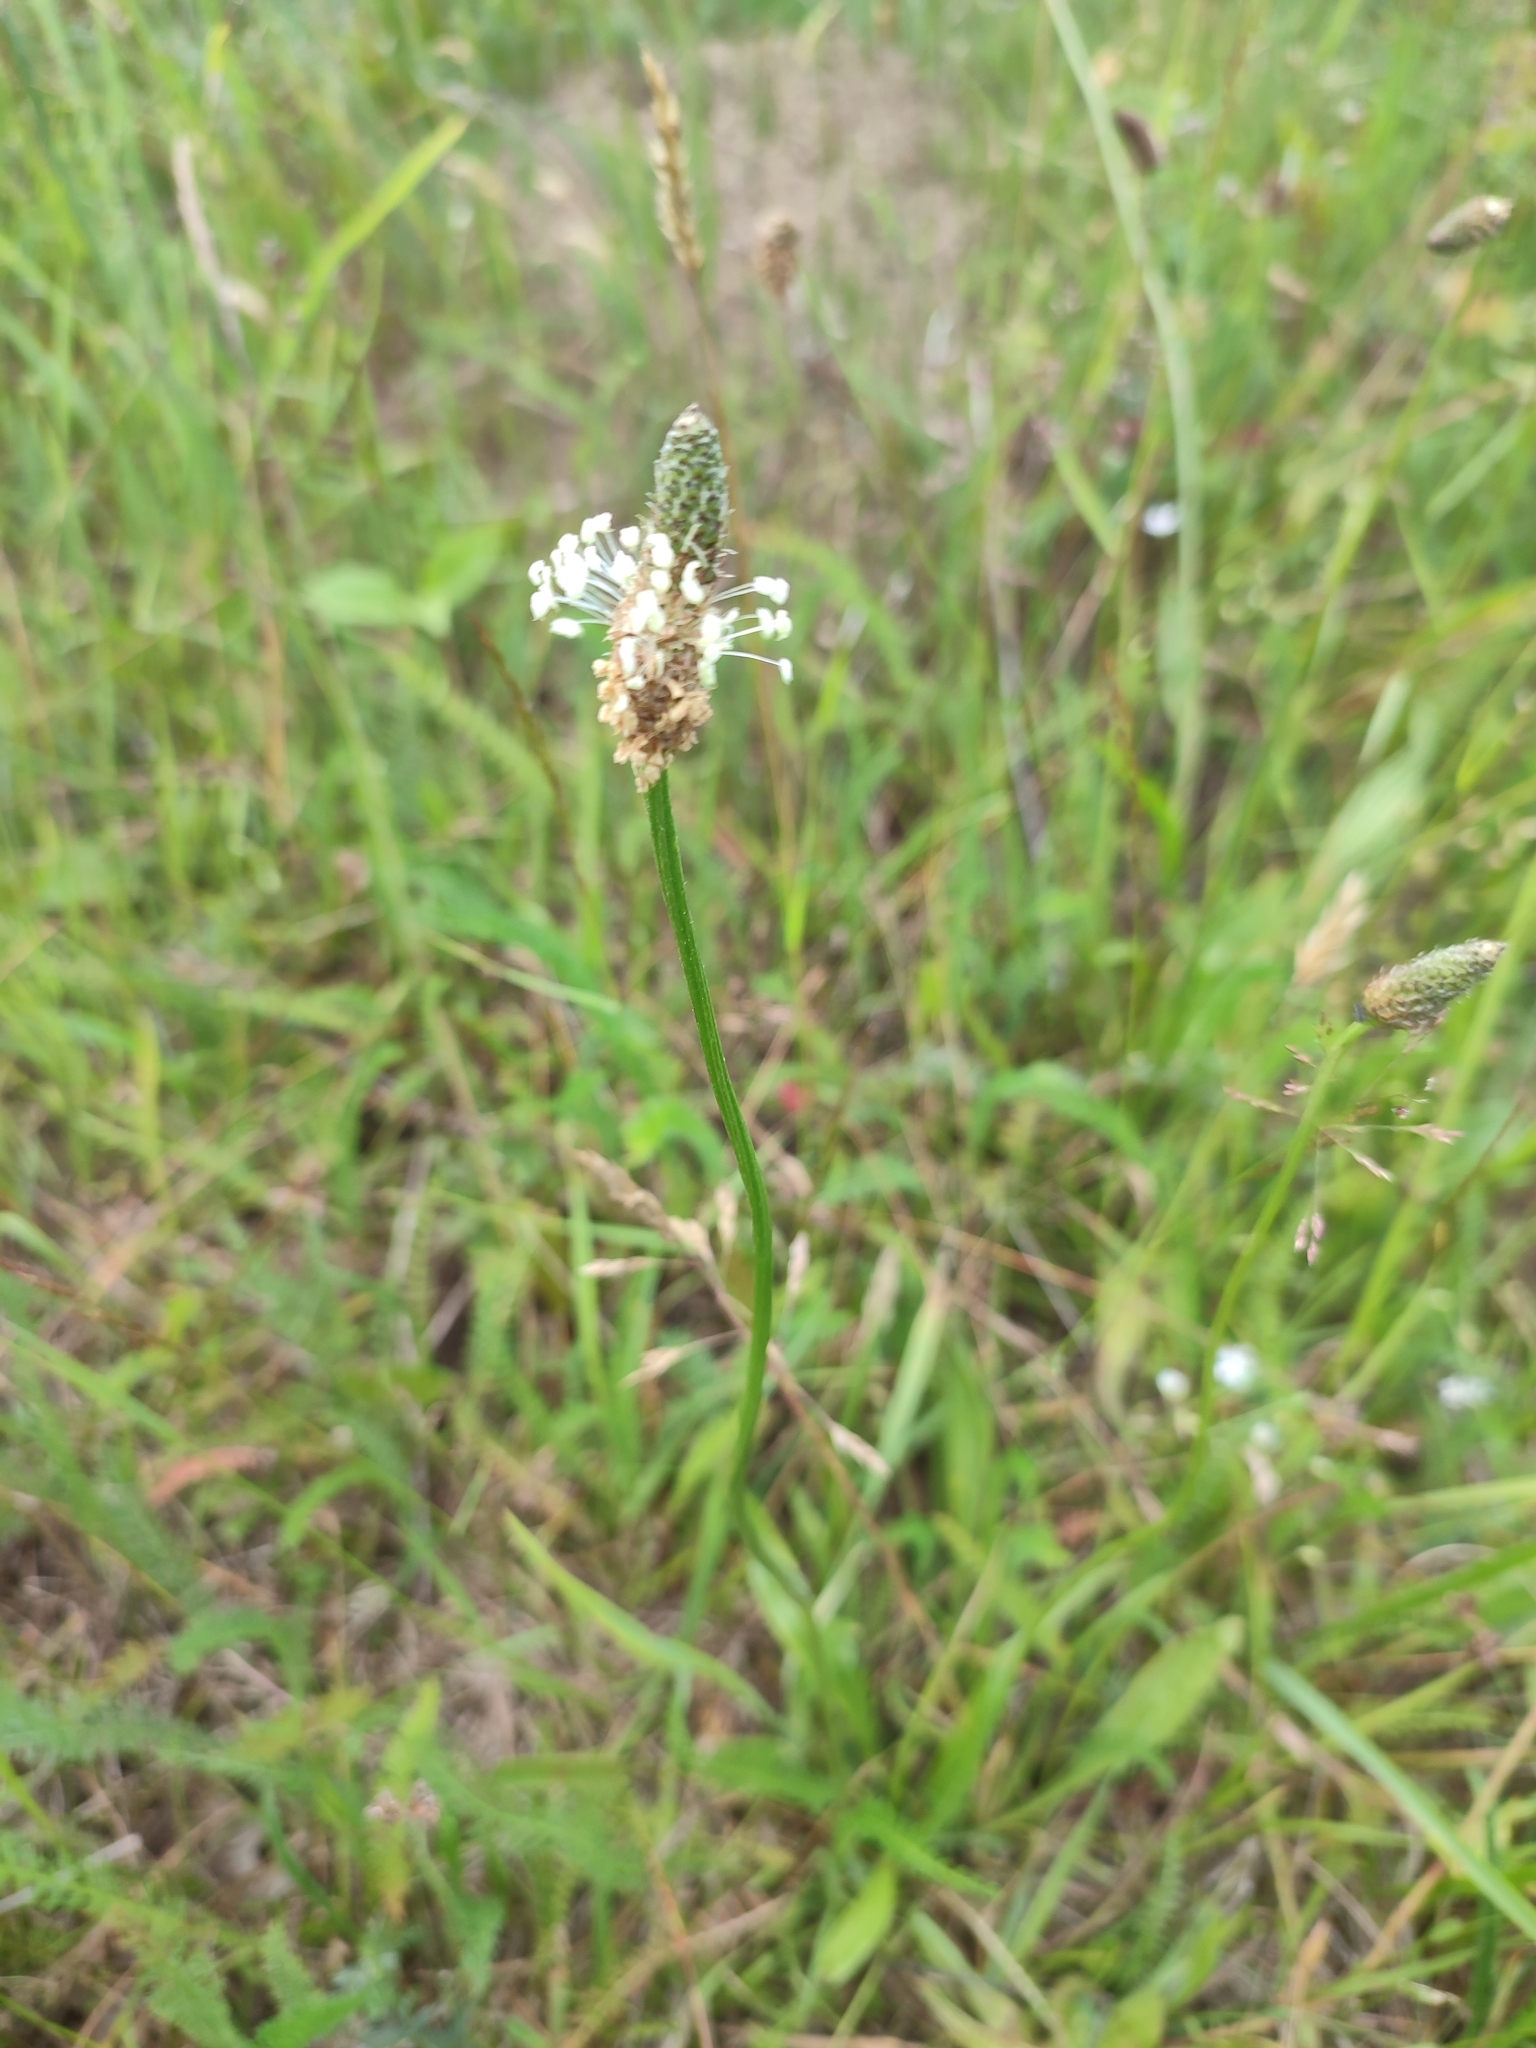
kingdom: Plantae
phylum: Tracheophyta
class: Magnoliopsida
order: Lamiales
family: Plantaginaceae
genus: Plantago
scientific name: Plantago lanceolata
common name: Ribwort plantain
